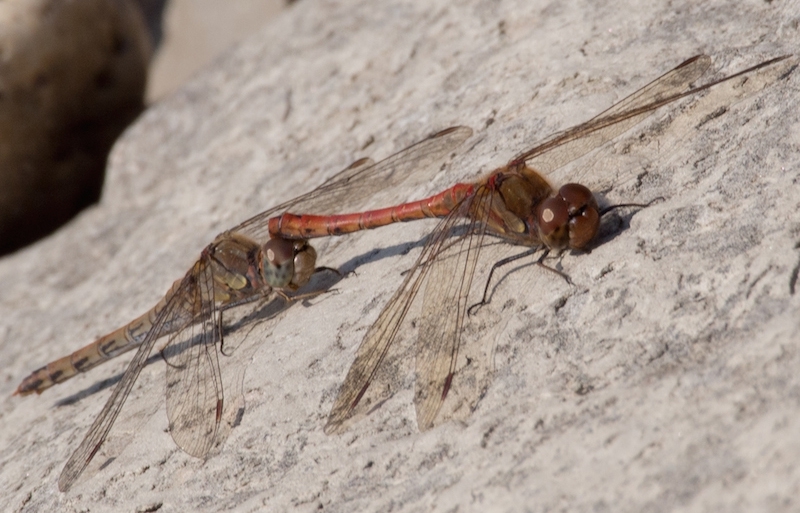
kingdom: Animalia
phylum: Arthropoda
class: Insecta
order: Odonata
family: Libellulidae
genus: Sympetrum
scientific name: Sympetrum striolatum
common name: Common darter
